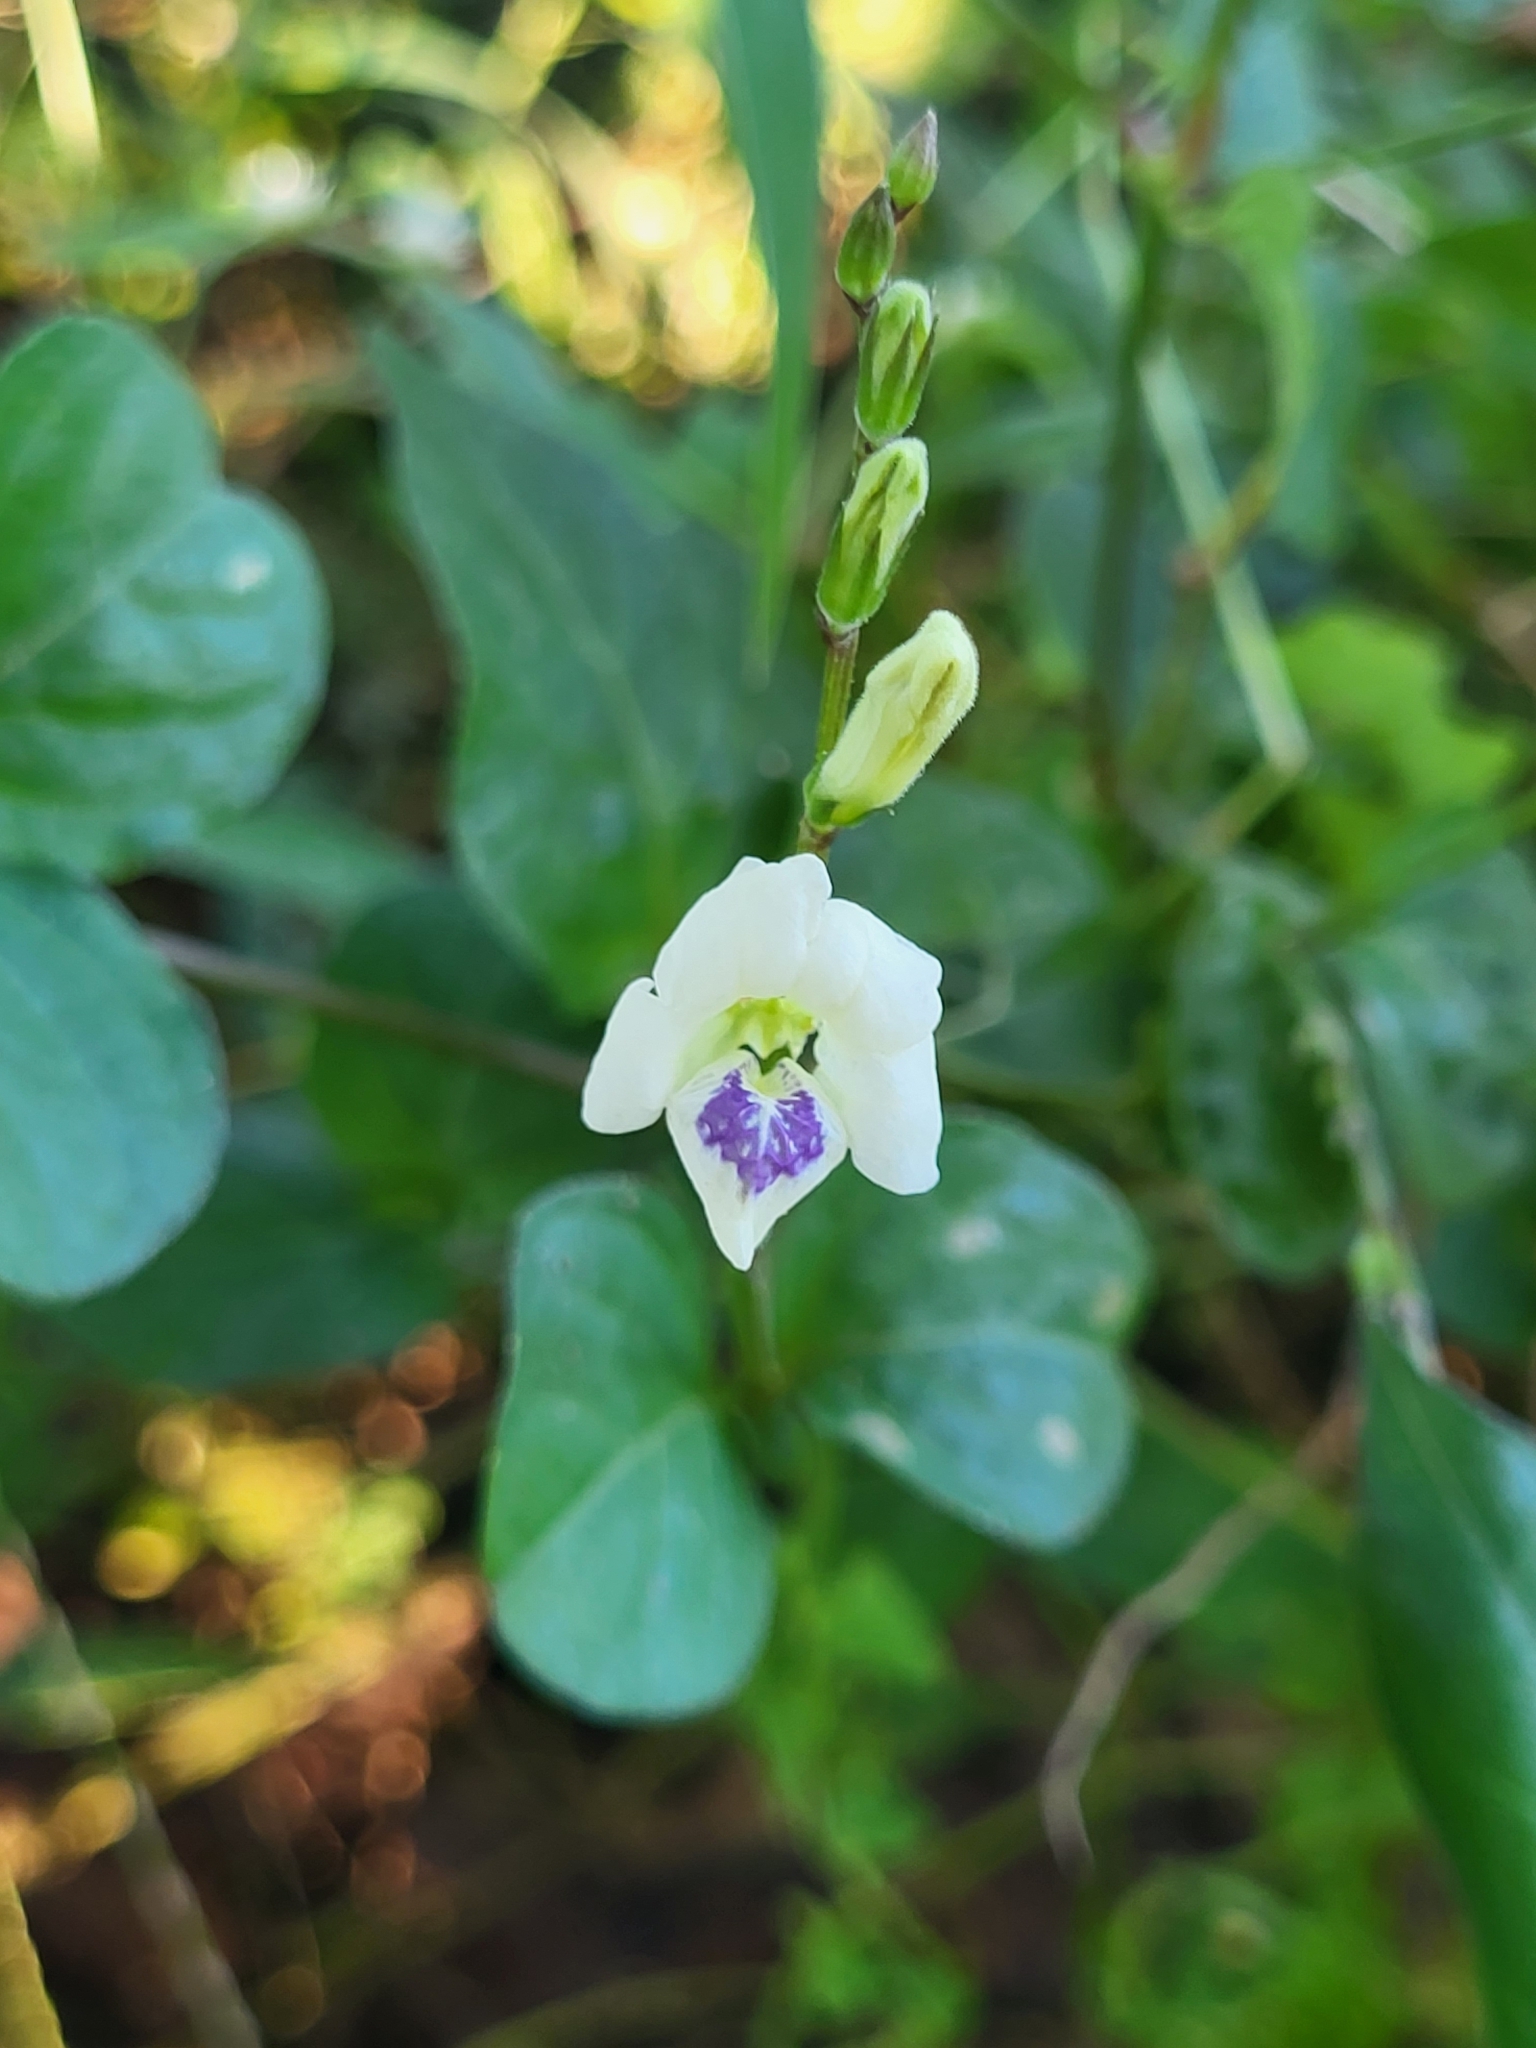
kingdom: Plantae
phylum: Tracheophyta
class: Magnoliopsida
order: Lamiales
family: Acanthaceae
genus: Asystasia
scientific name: Asystasia intrusa
